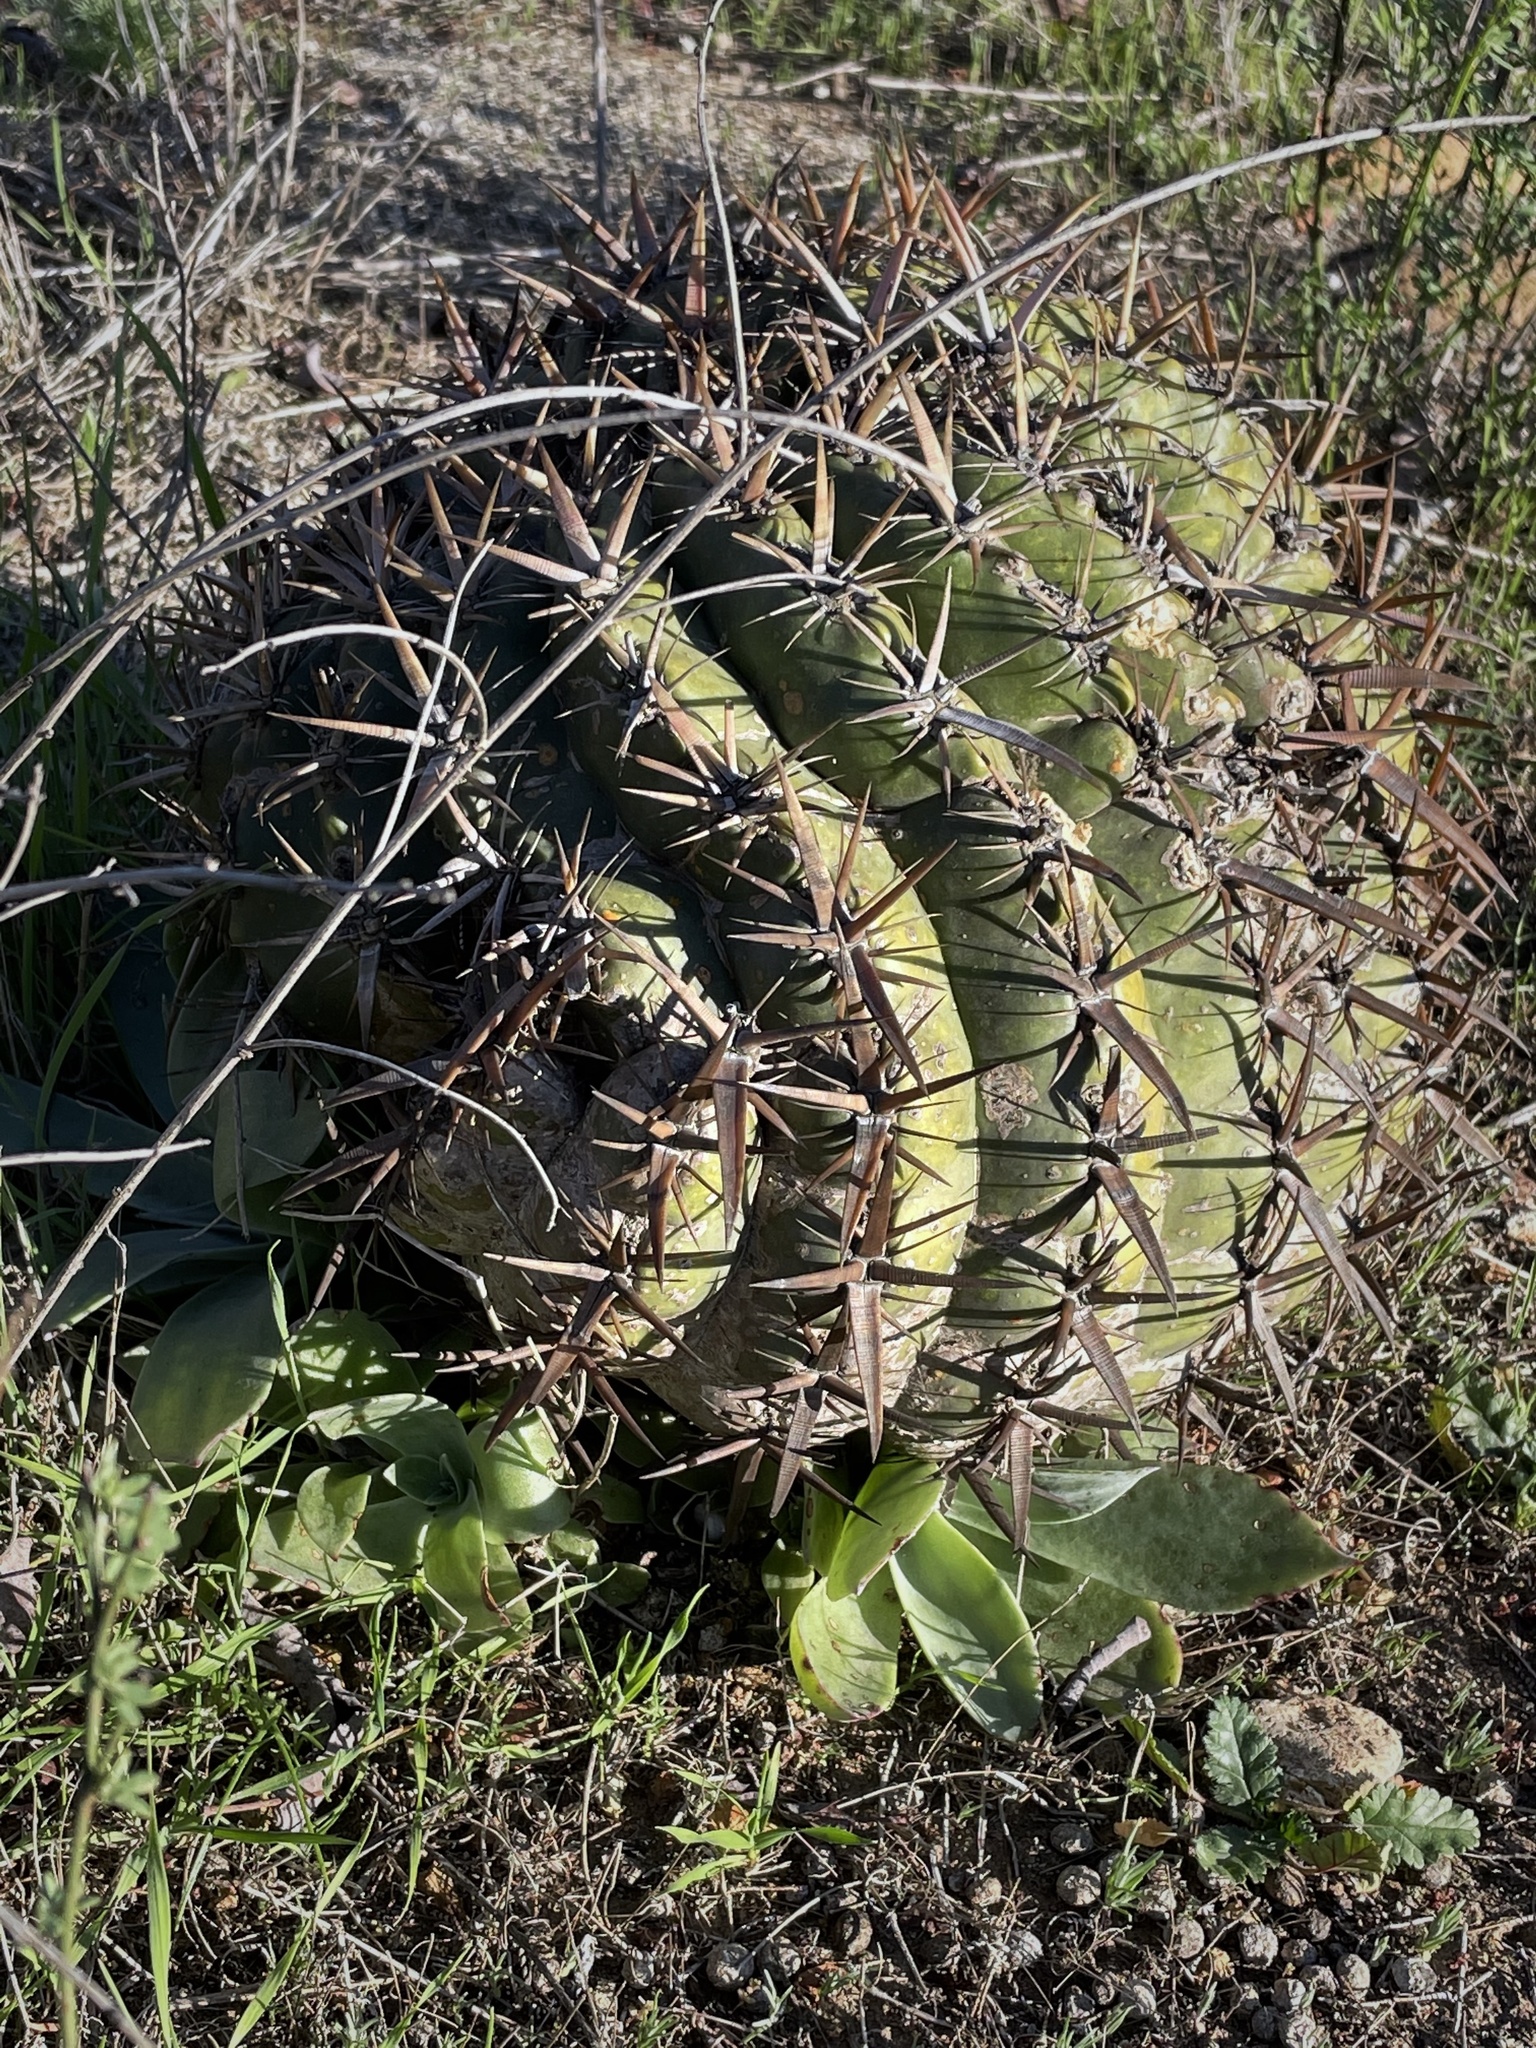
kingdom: Plantae
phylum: Tracheophyta
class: Magnoliopsida
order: Caryophyllales
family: Cactaceae
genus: Ferocactus
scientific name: Ferocactus viridescens
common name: San diego barrel cactus
